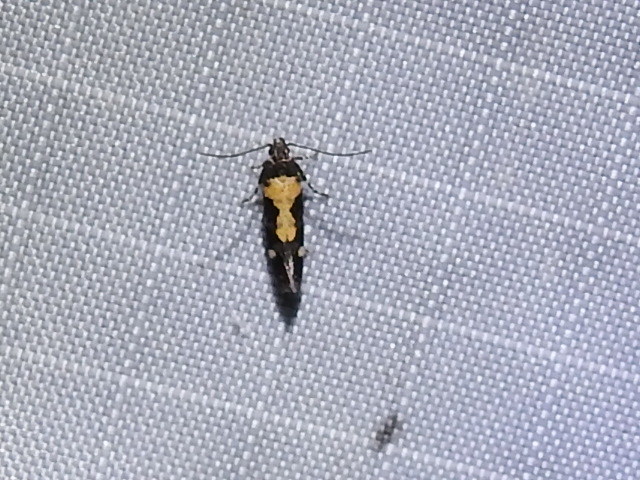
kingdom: Animalia
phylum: Arthropoda
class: Insecta
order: Lepidoptera
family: Gelechiidae
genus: Stegasta
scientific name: Stegasta bosqueella
